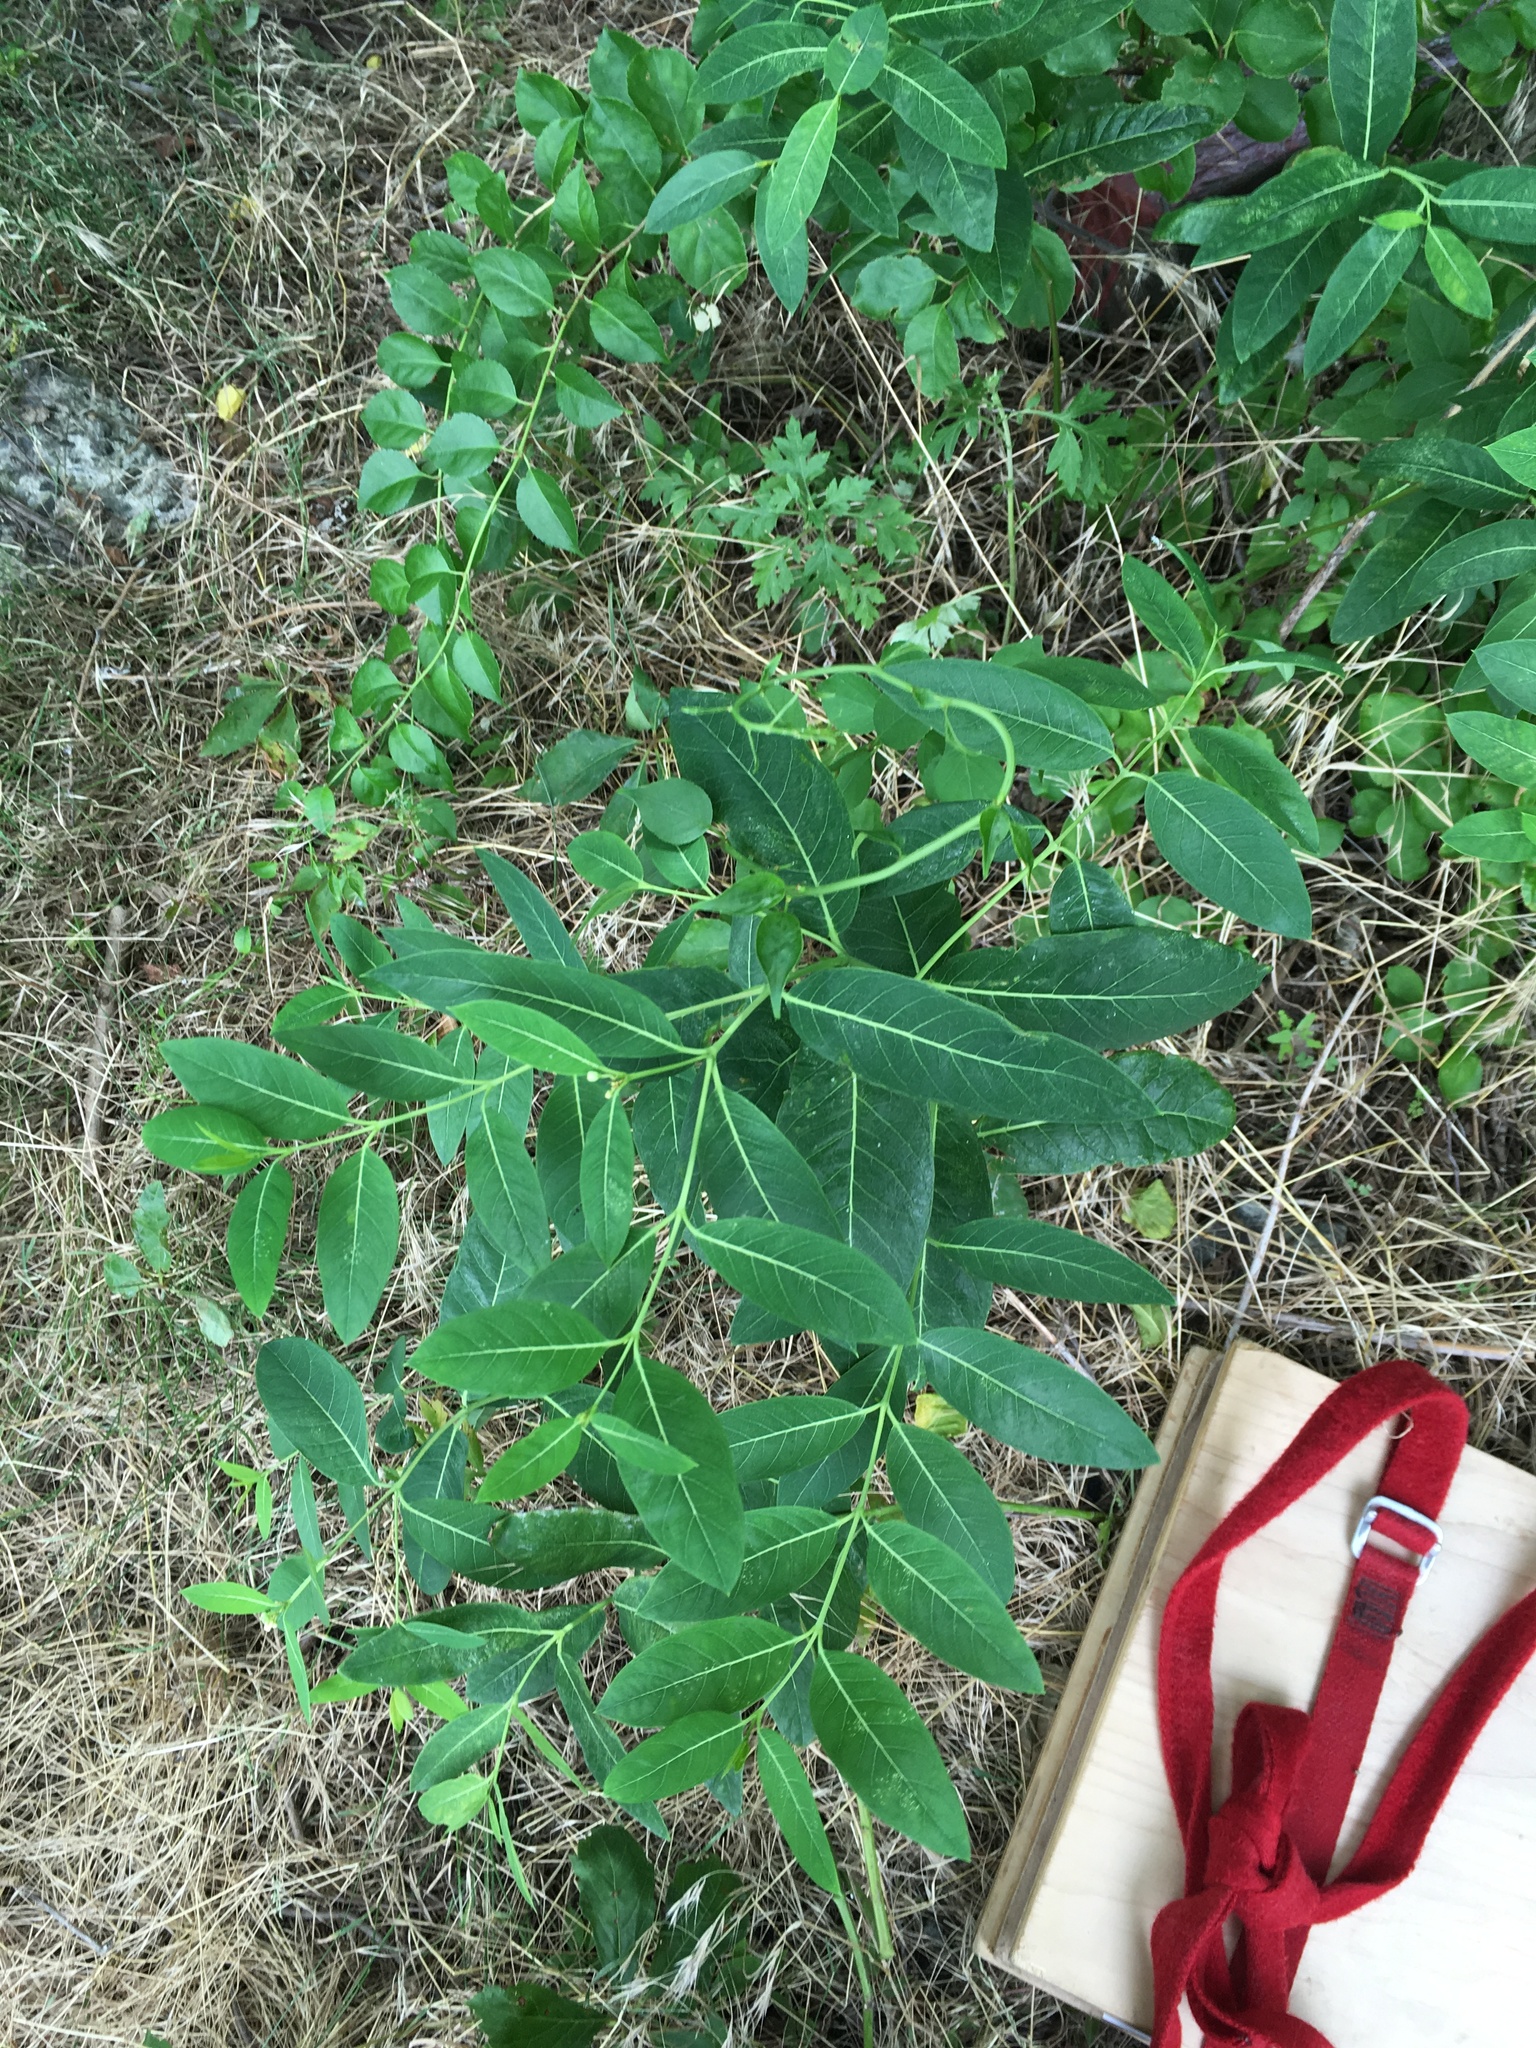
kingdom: Plantae
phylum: Tracheophyta
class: Magnoliopsida
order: Gentianales
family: Apocynaceae
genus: Apocynum
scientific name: Apocynum cannabinum
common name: Hemp dogbane
